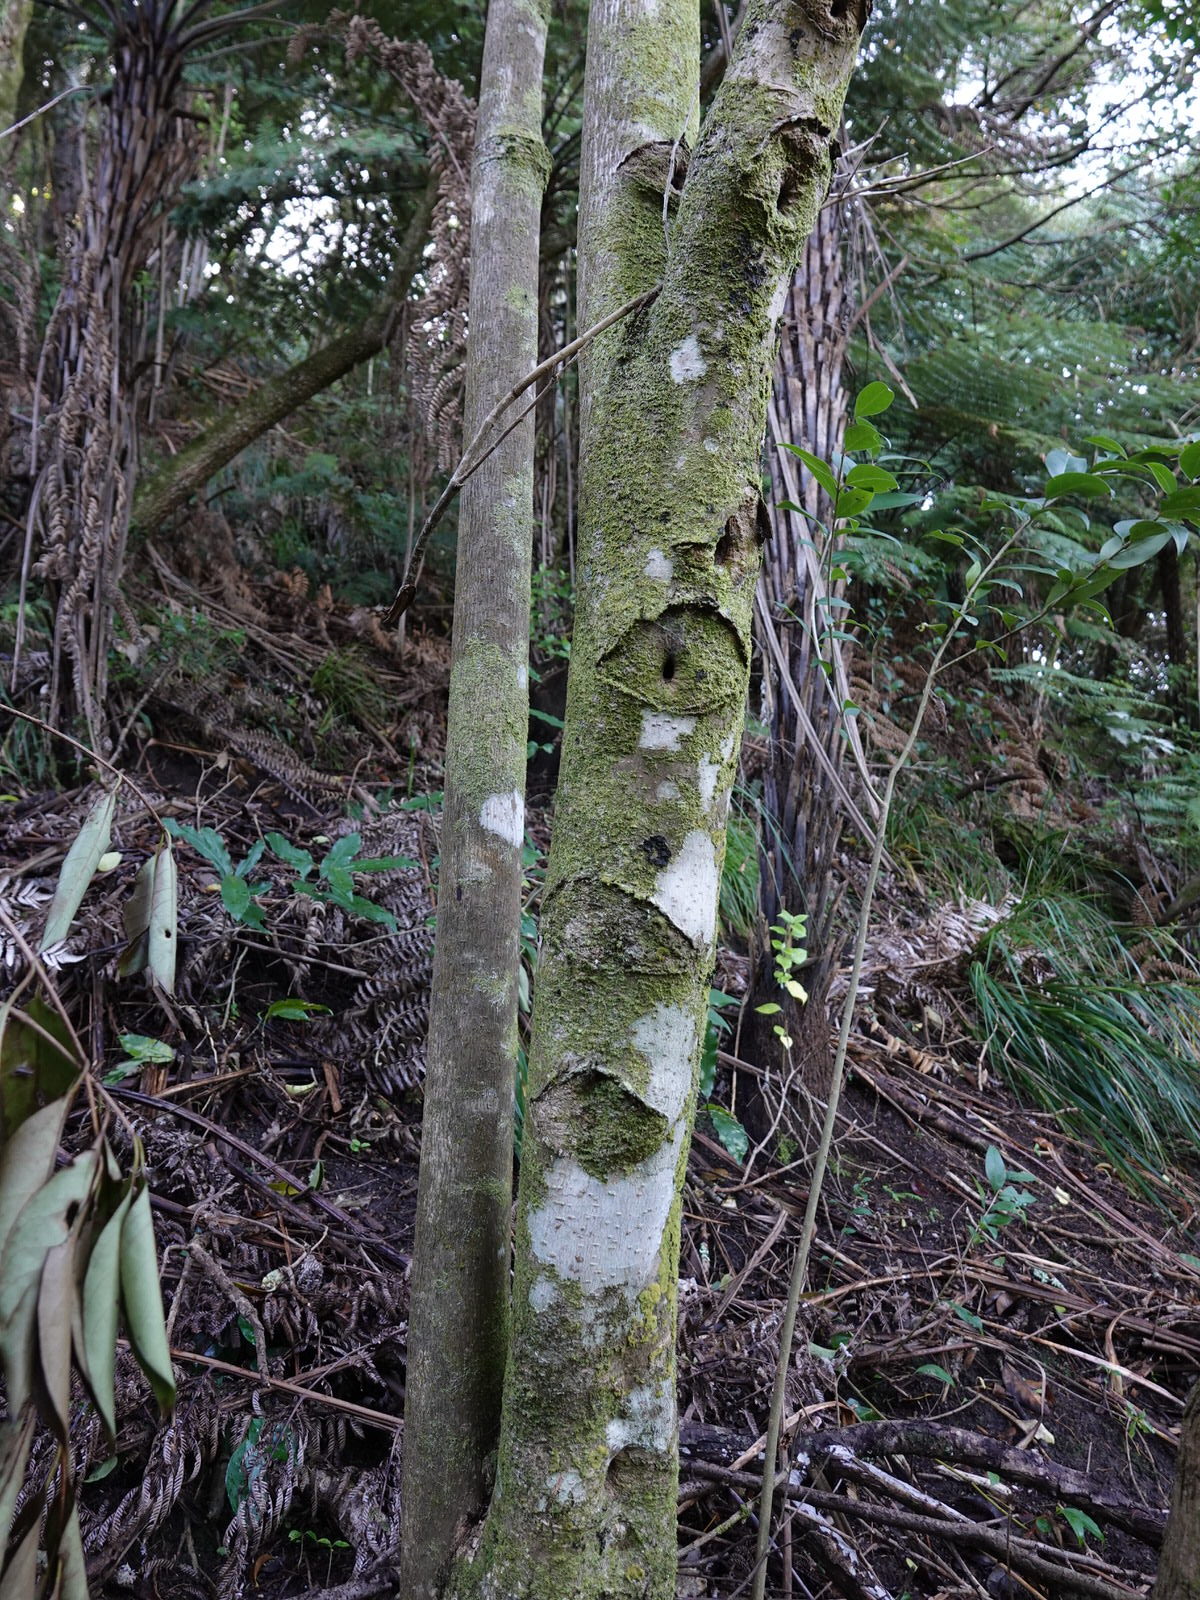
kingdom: Animalia
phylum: Arthropoda
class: Insecta
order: Lepidoptera
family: Hepialidae
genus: Aenetus
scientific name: Aenetus virescens
